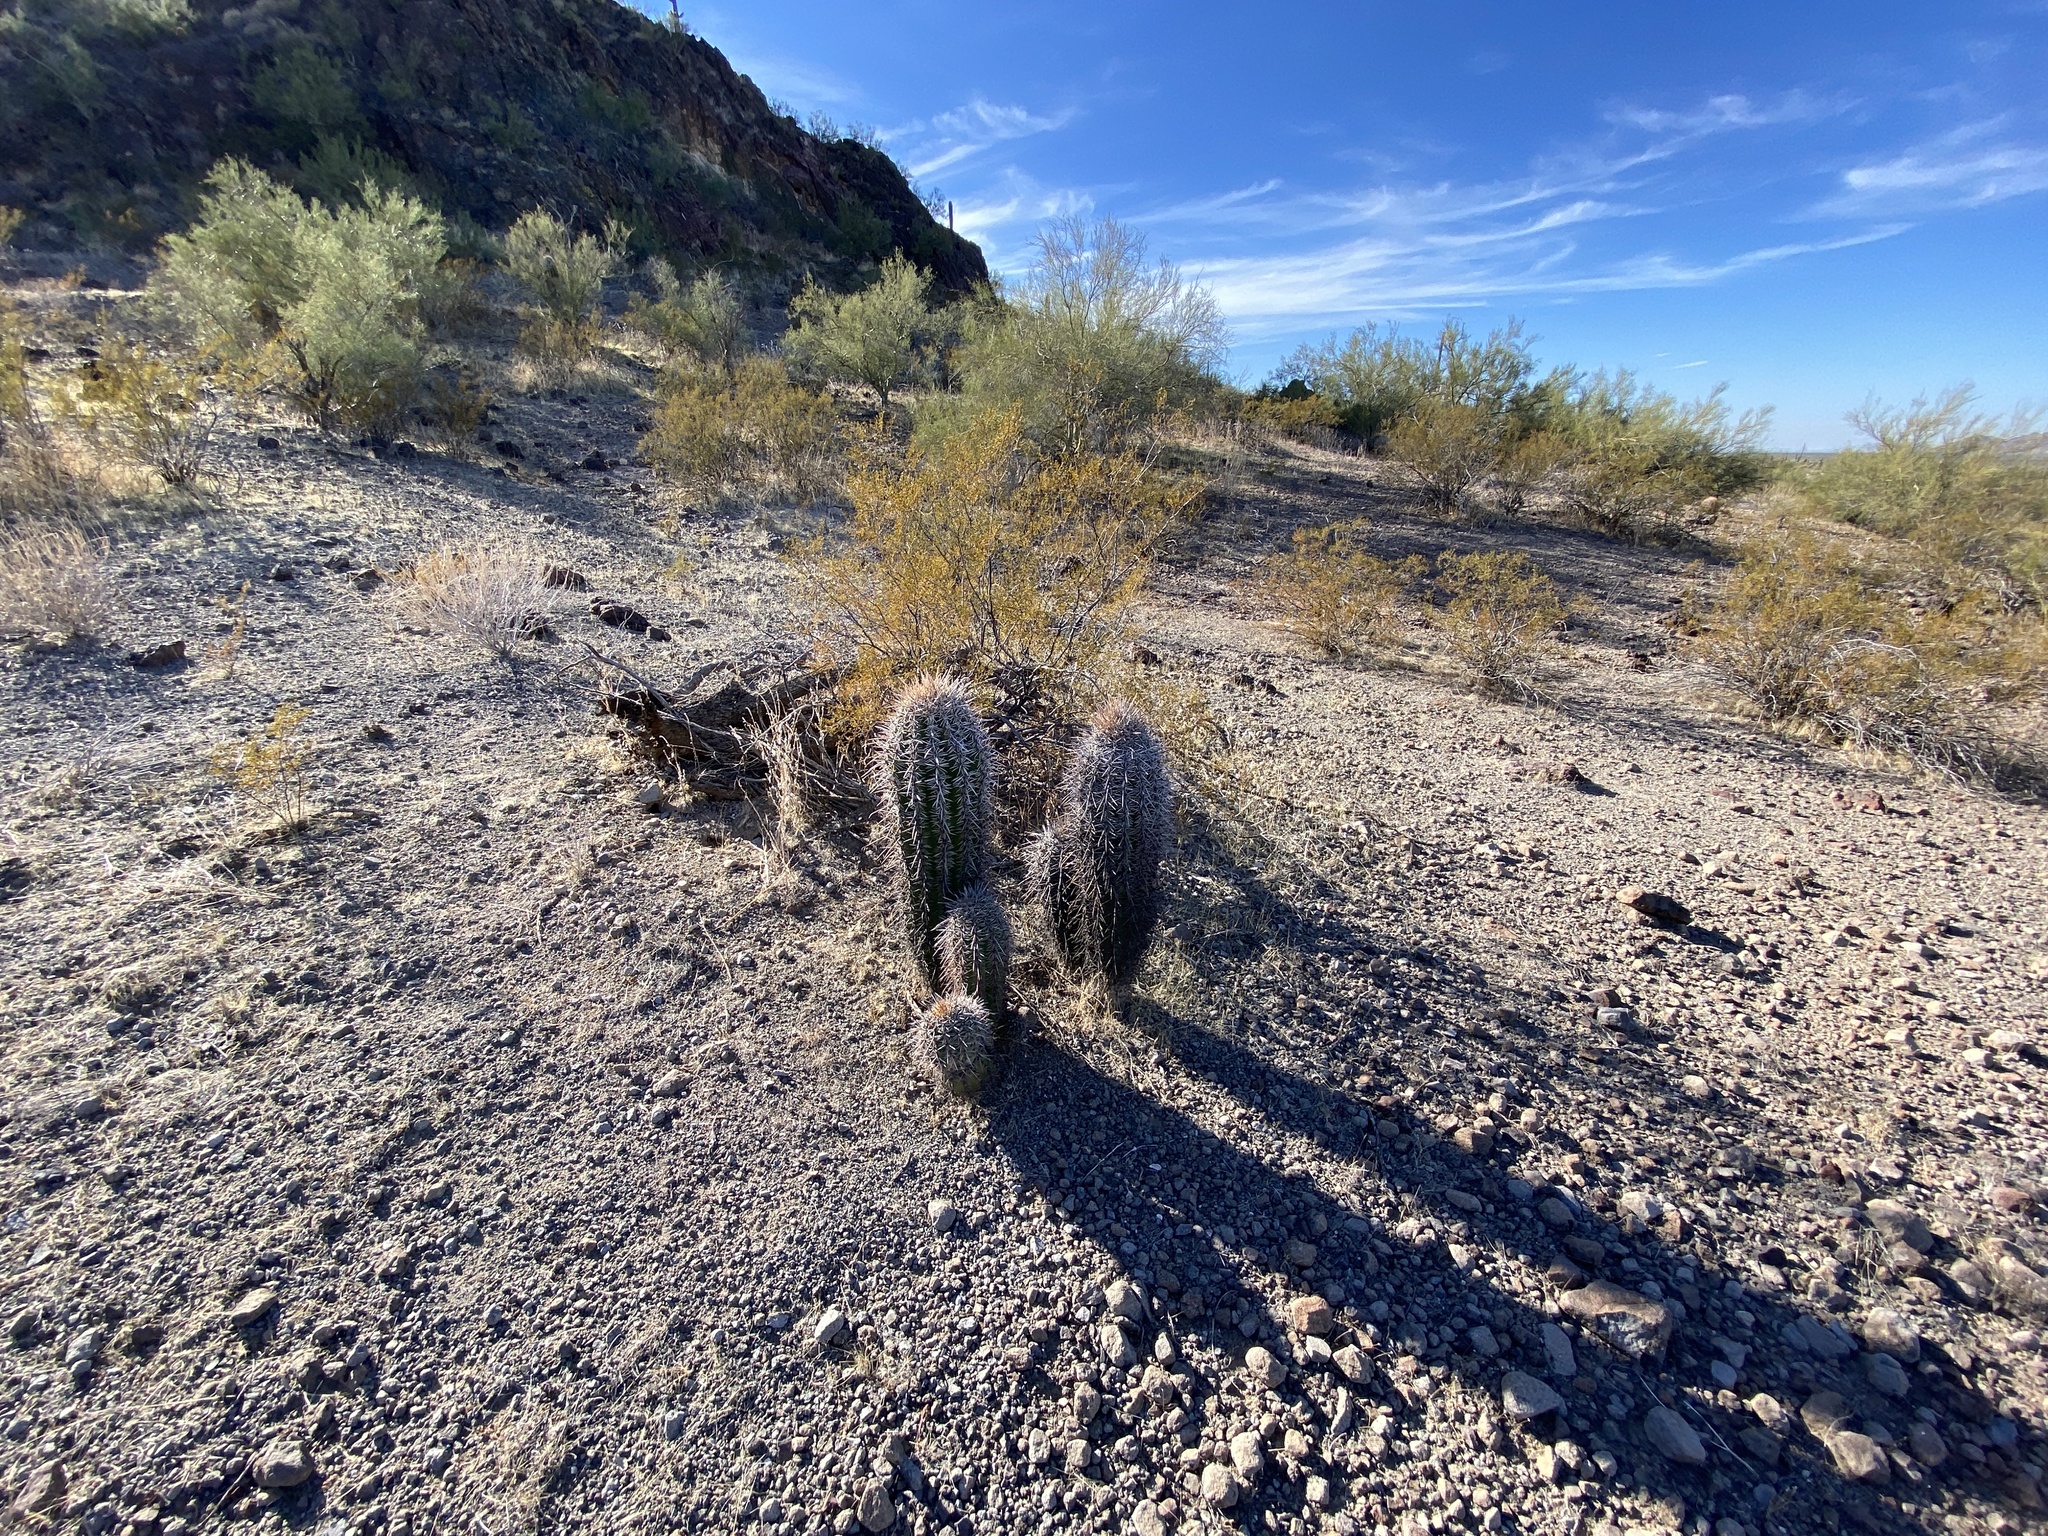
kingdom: Plantae
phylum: Tracheophyta
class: Magnoliopsida
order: Caryophyllales
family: Cactaceae
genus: Carnegiea
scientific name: Carnegiea gigantea
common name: Saguaro
